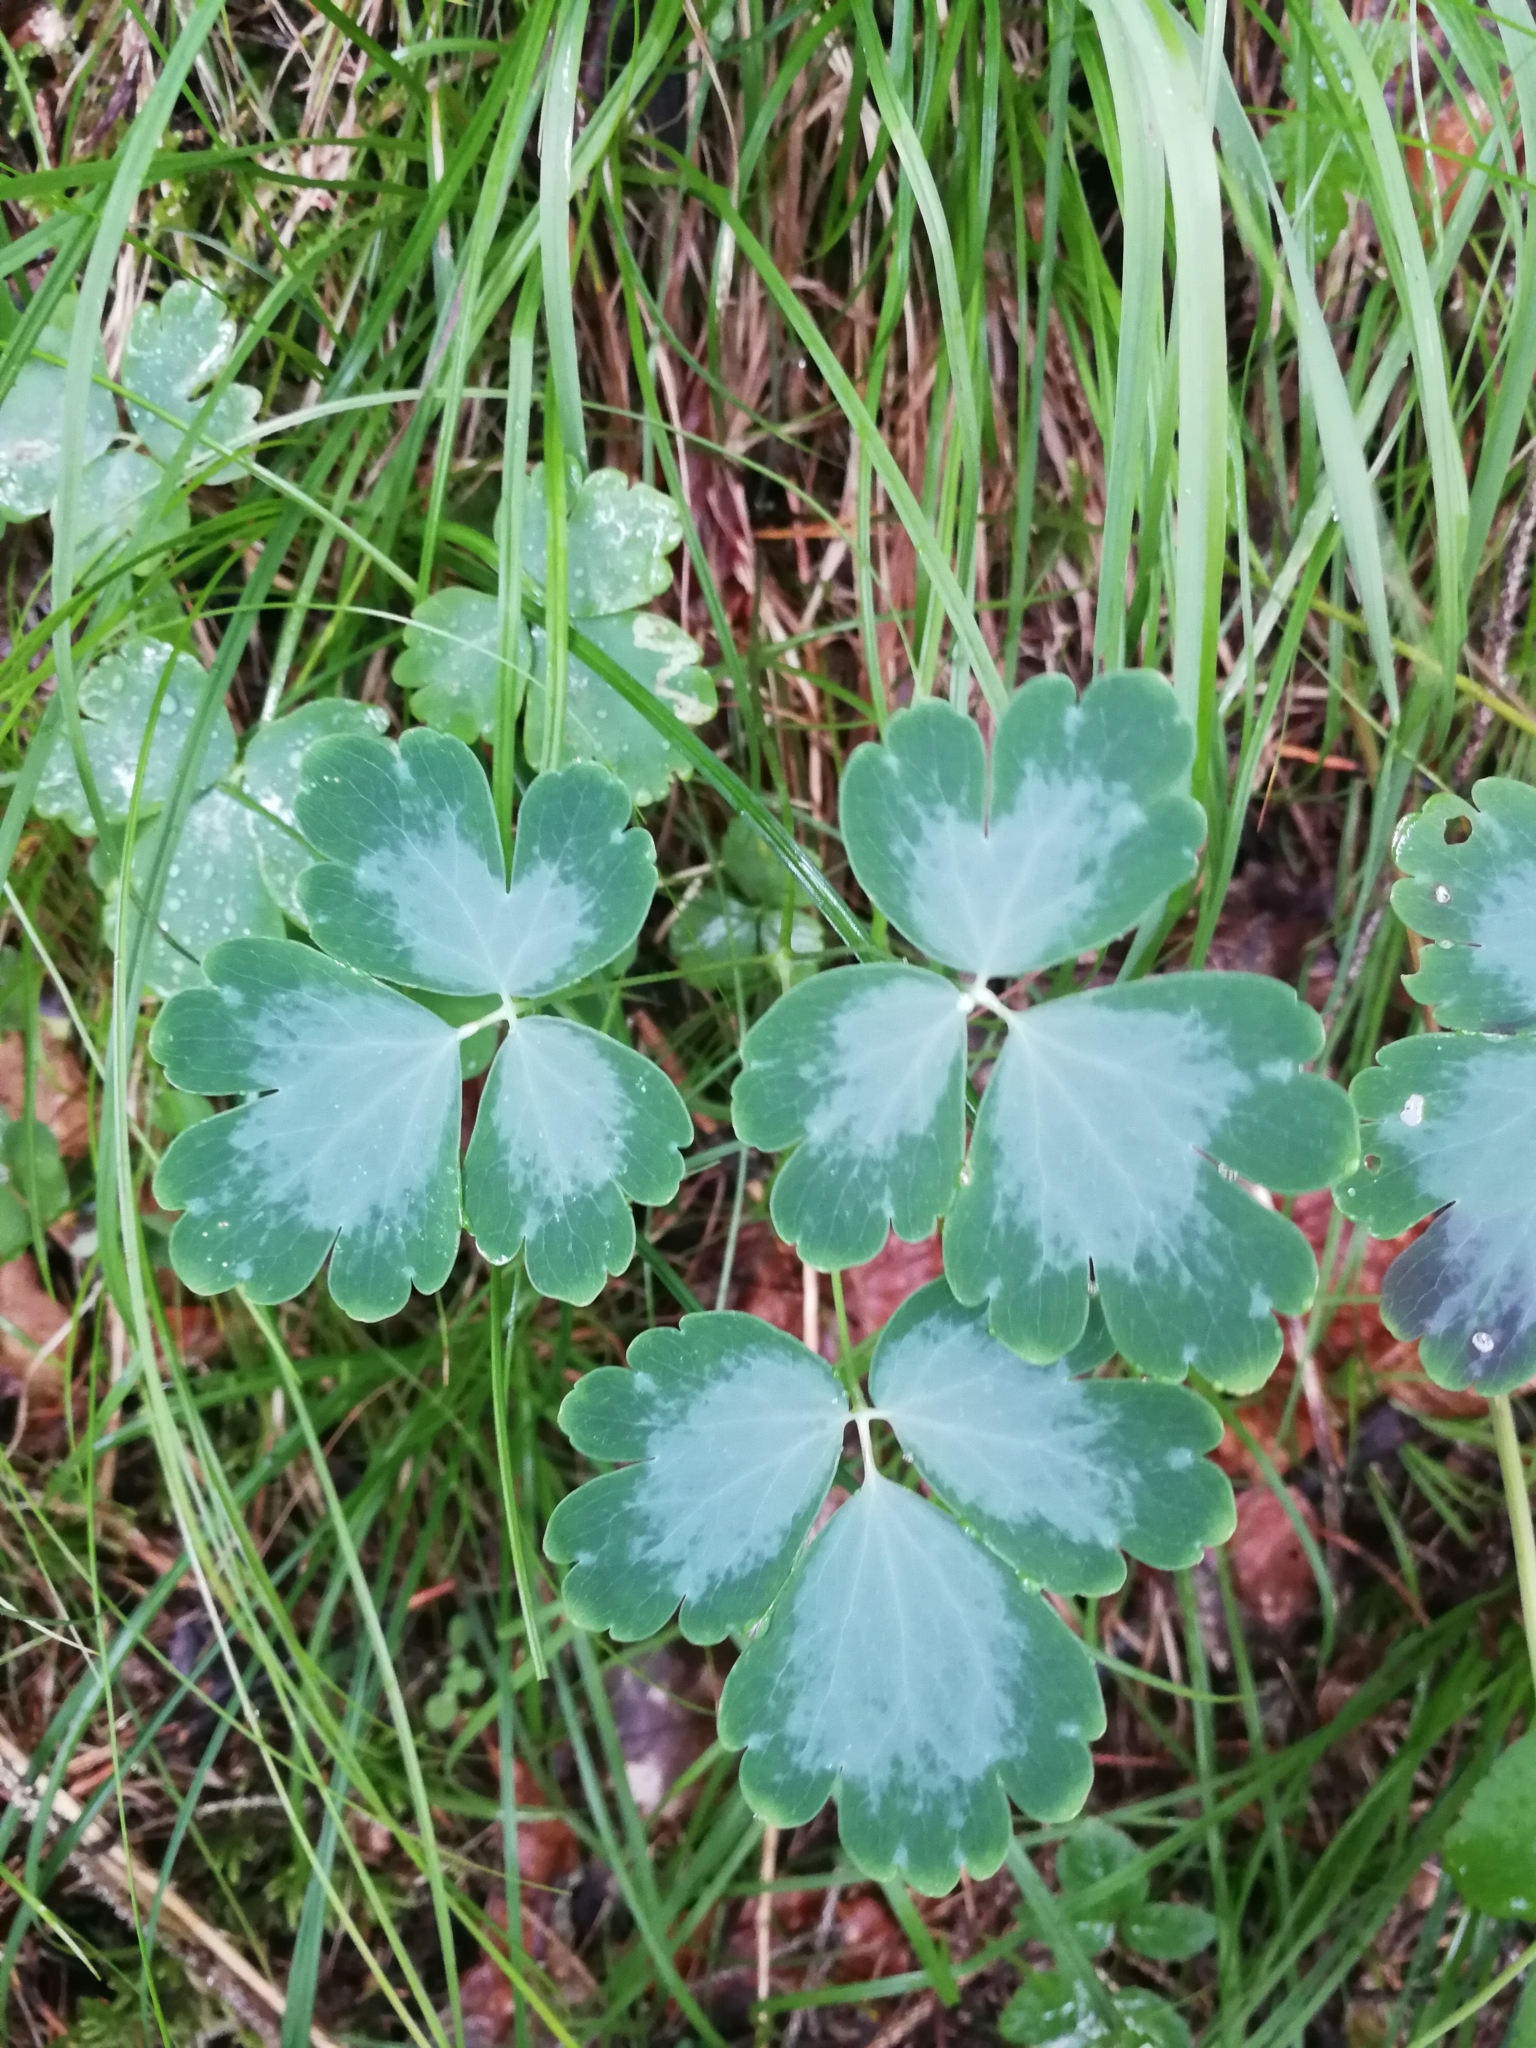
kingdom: Plantae
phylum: Tracheophyta
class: Magnoliopsida
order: Ranunculales
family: Ranunculaceae
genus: Aquilegia
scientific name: Aquilegia vulgaris
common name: Columbine
